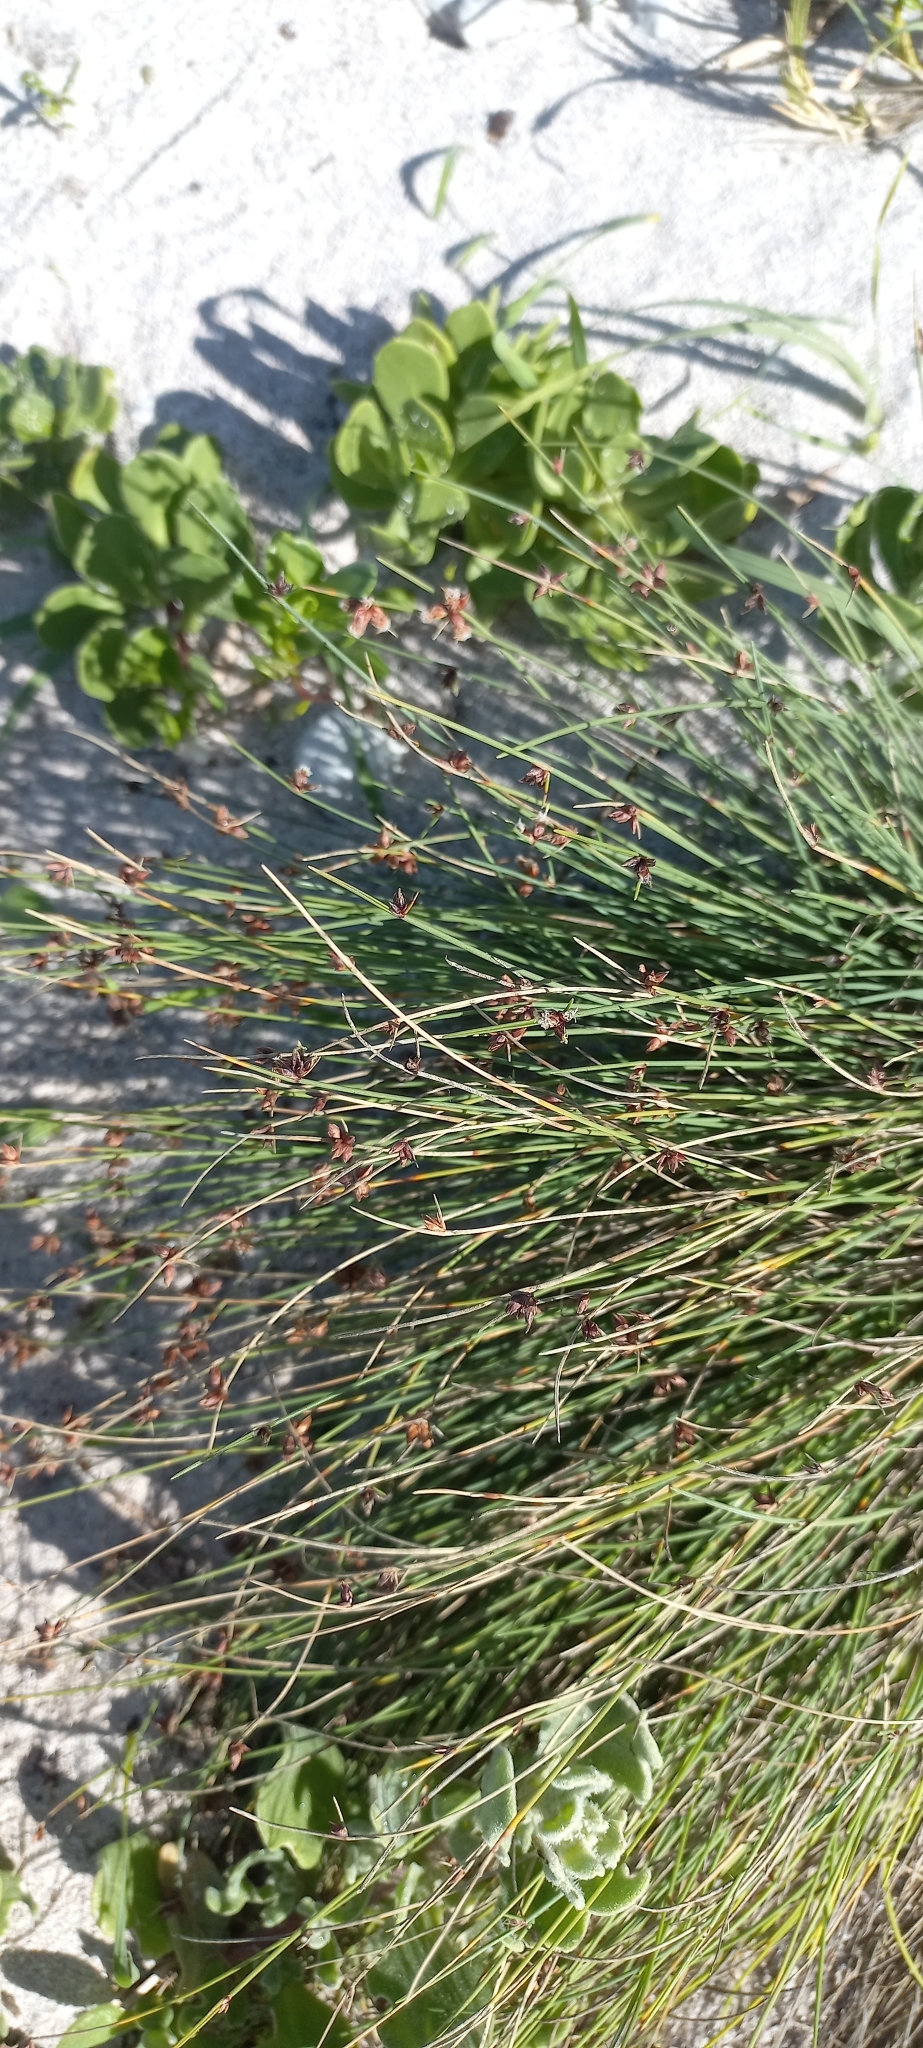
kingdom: Plantae
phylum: Tracheophyta
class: Liliopsida
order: Poales
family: Cyperaceae
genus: Ficinia
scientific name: Ficinia lateralis
